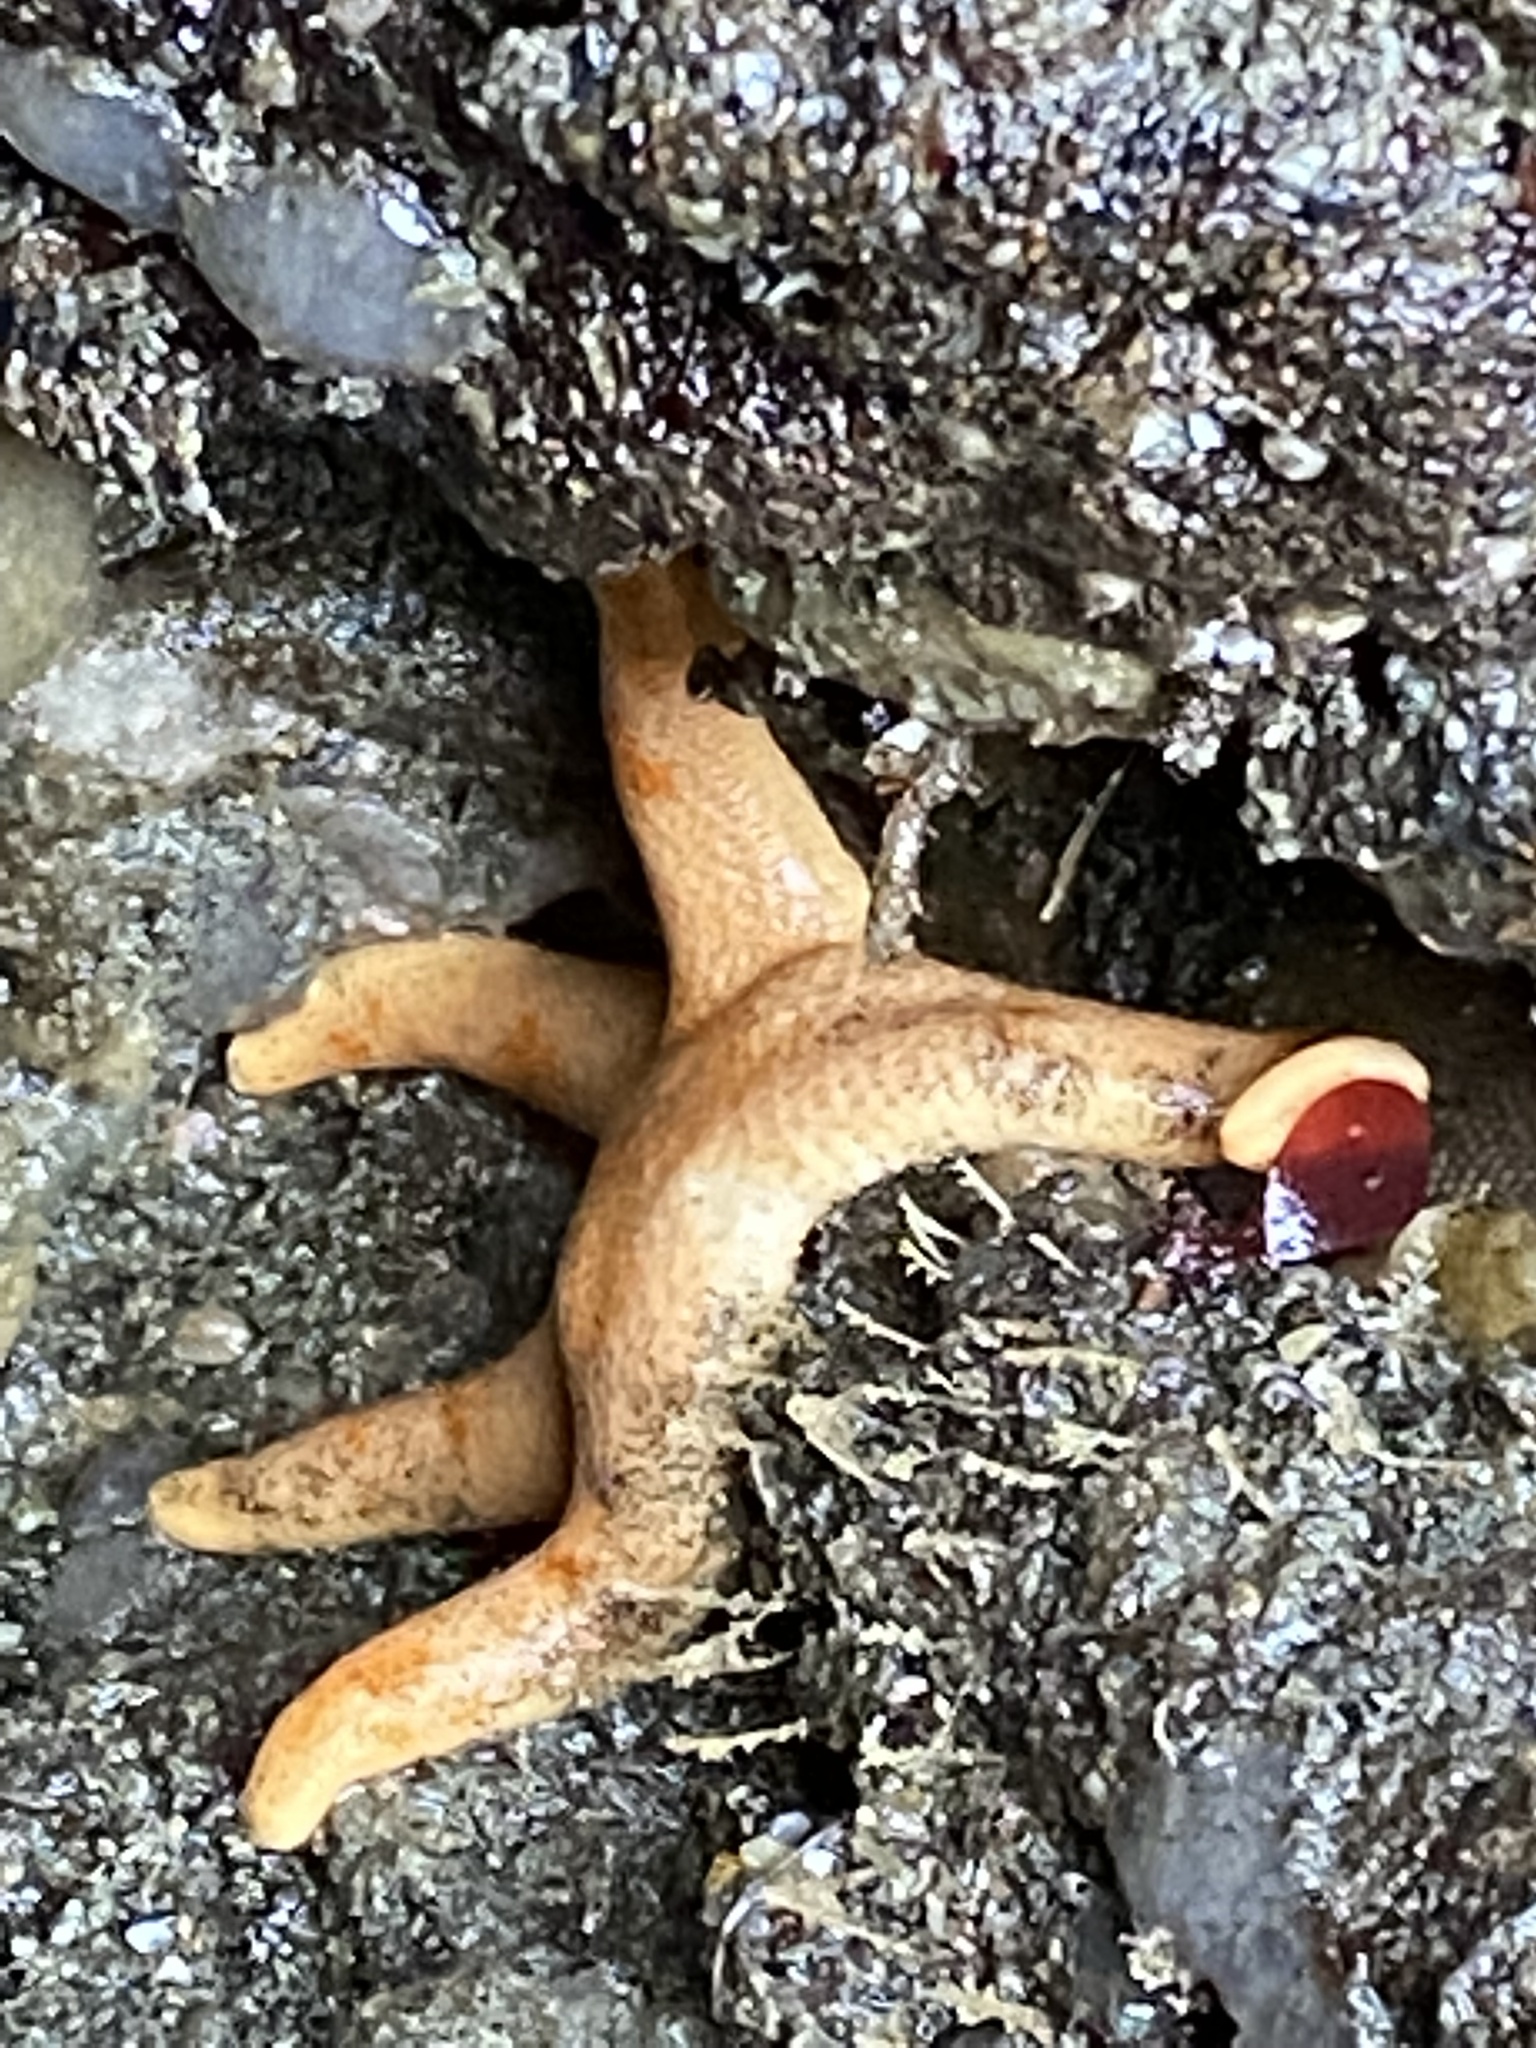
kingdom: Animalia
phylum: Echinodermata
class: Asteroidea
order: Spinulosida
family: Echinasteridae
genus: Henricia
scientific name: Henricia pumila
